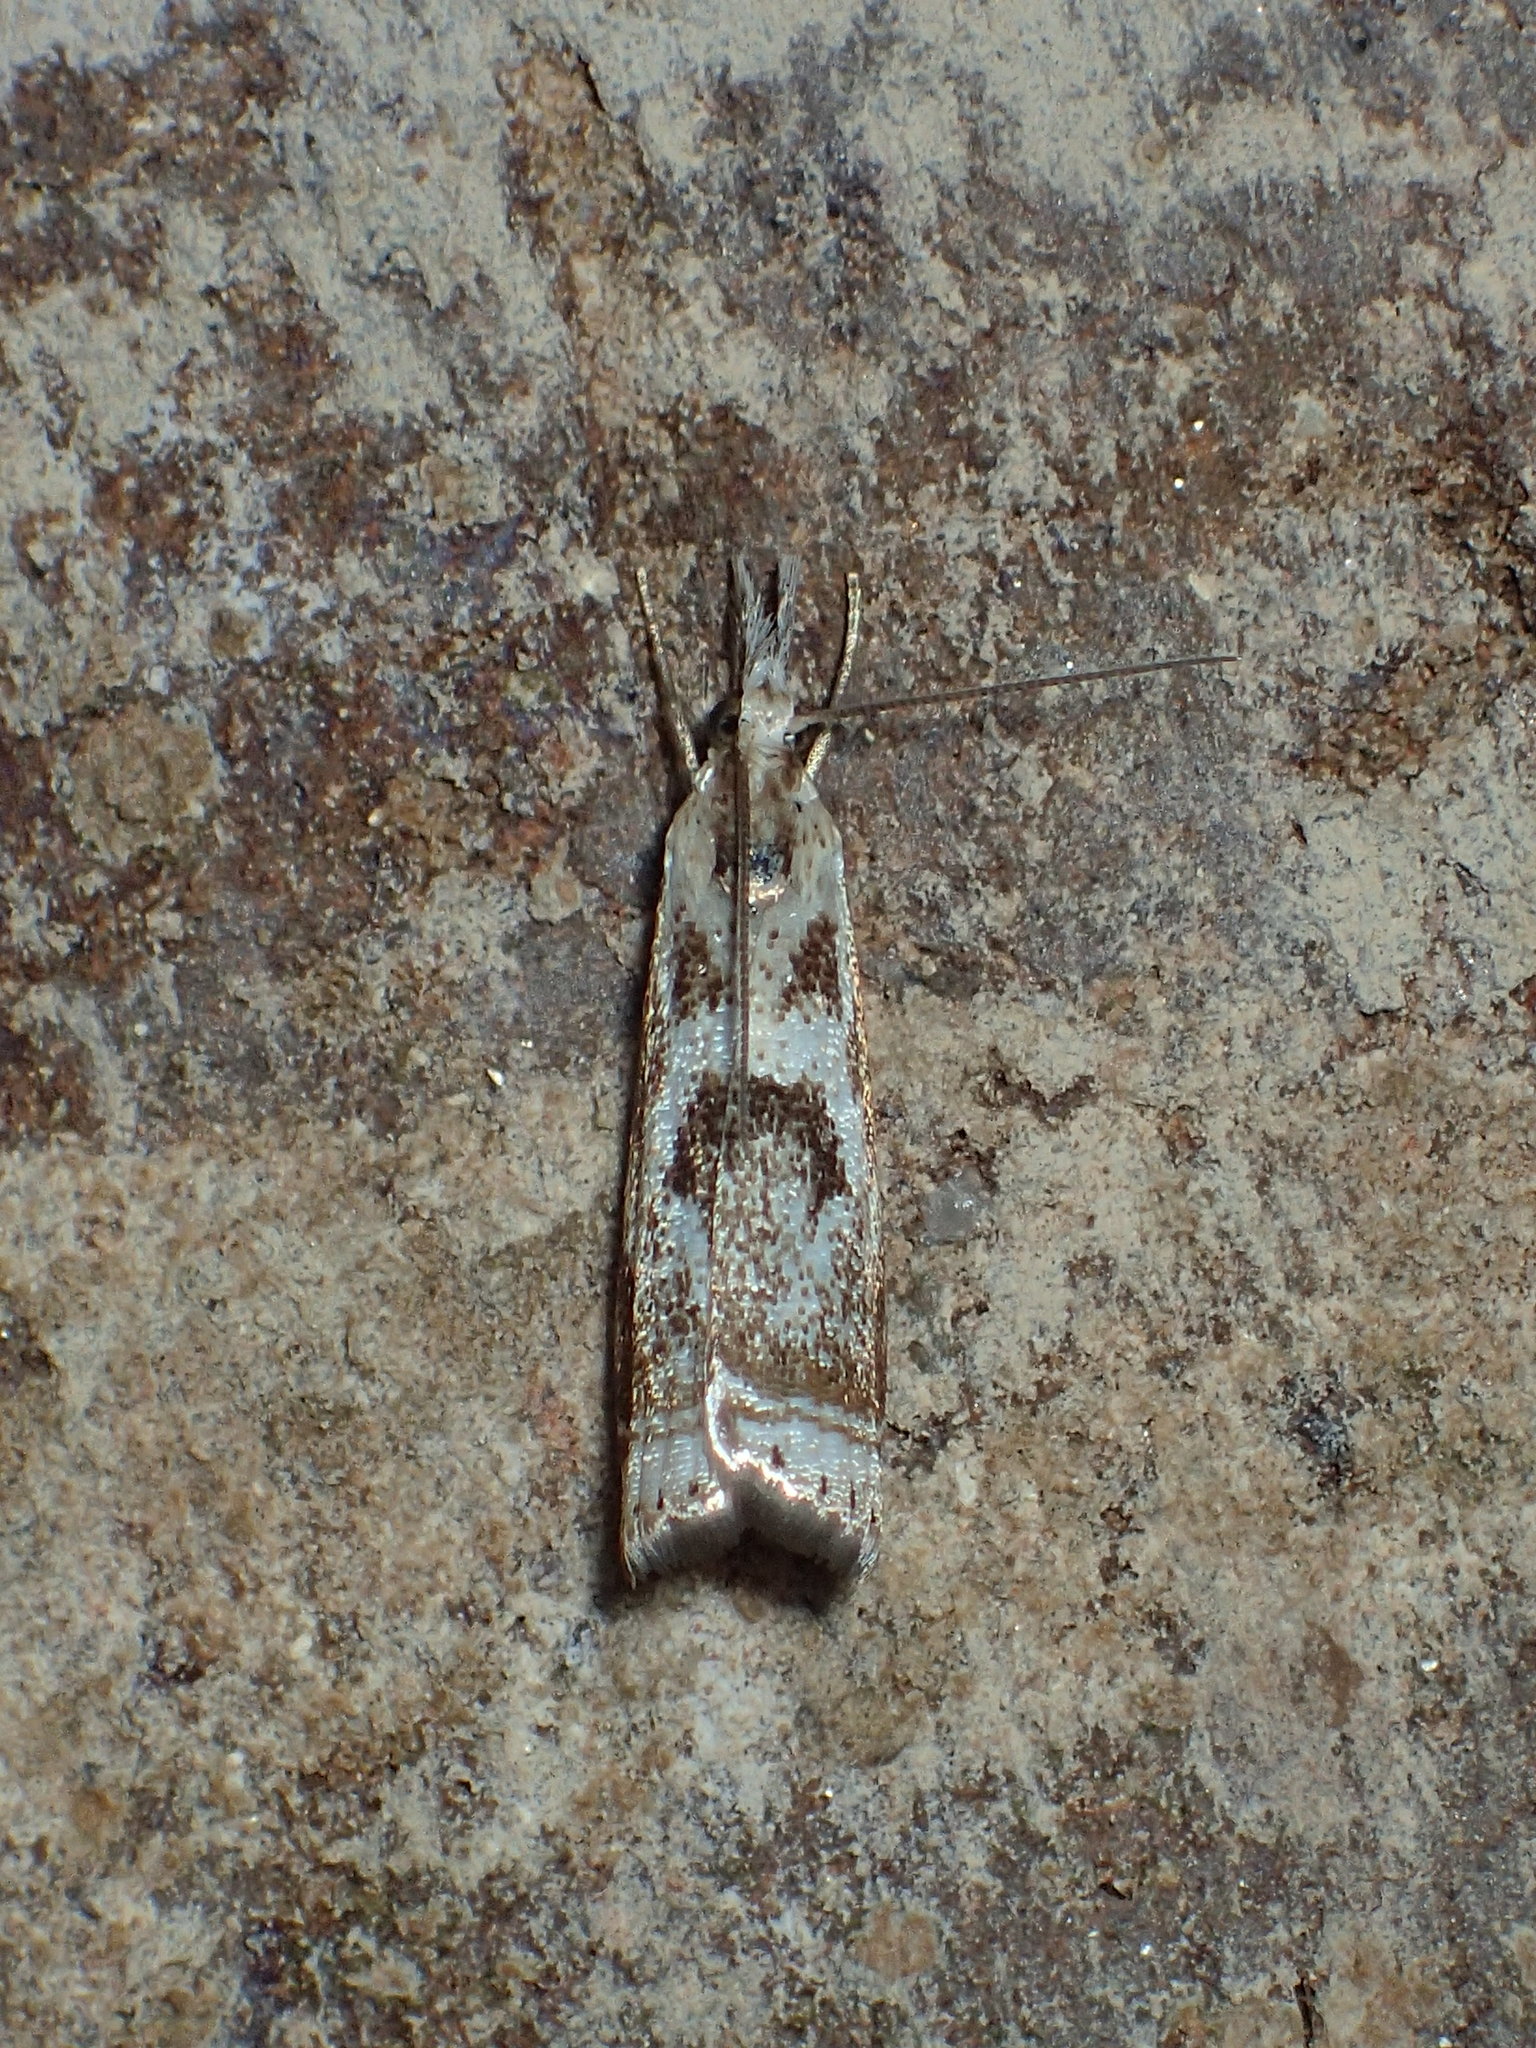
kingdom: Animalia
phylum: Arthropoda
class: Insecta
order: Lepidoptera
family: Crambidae
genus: Microcrambus
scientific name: Microcrambus elegans
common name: Elegant grass-veneer
